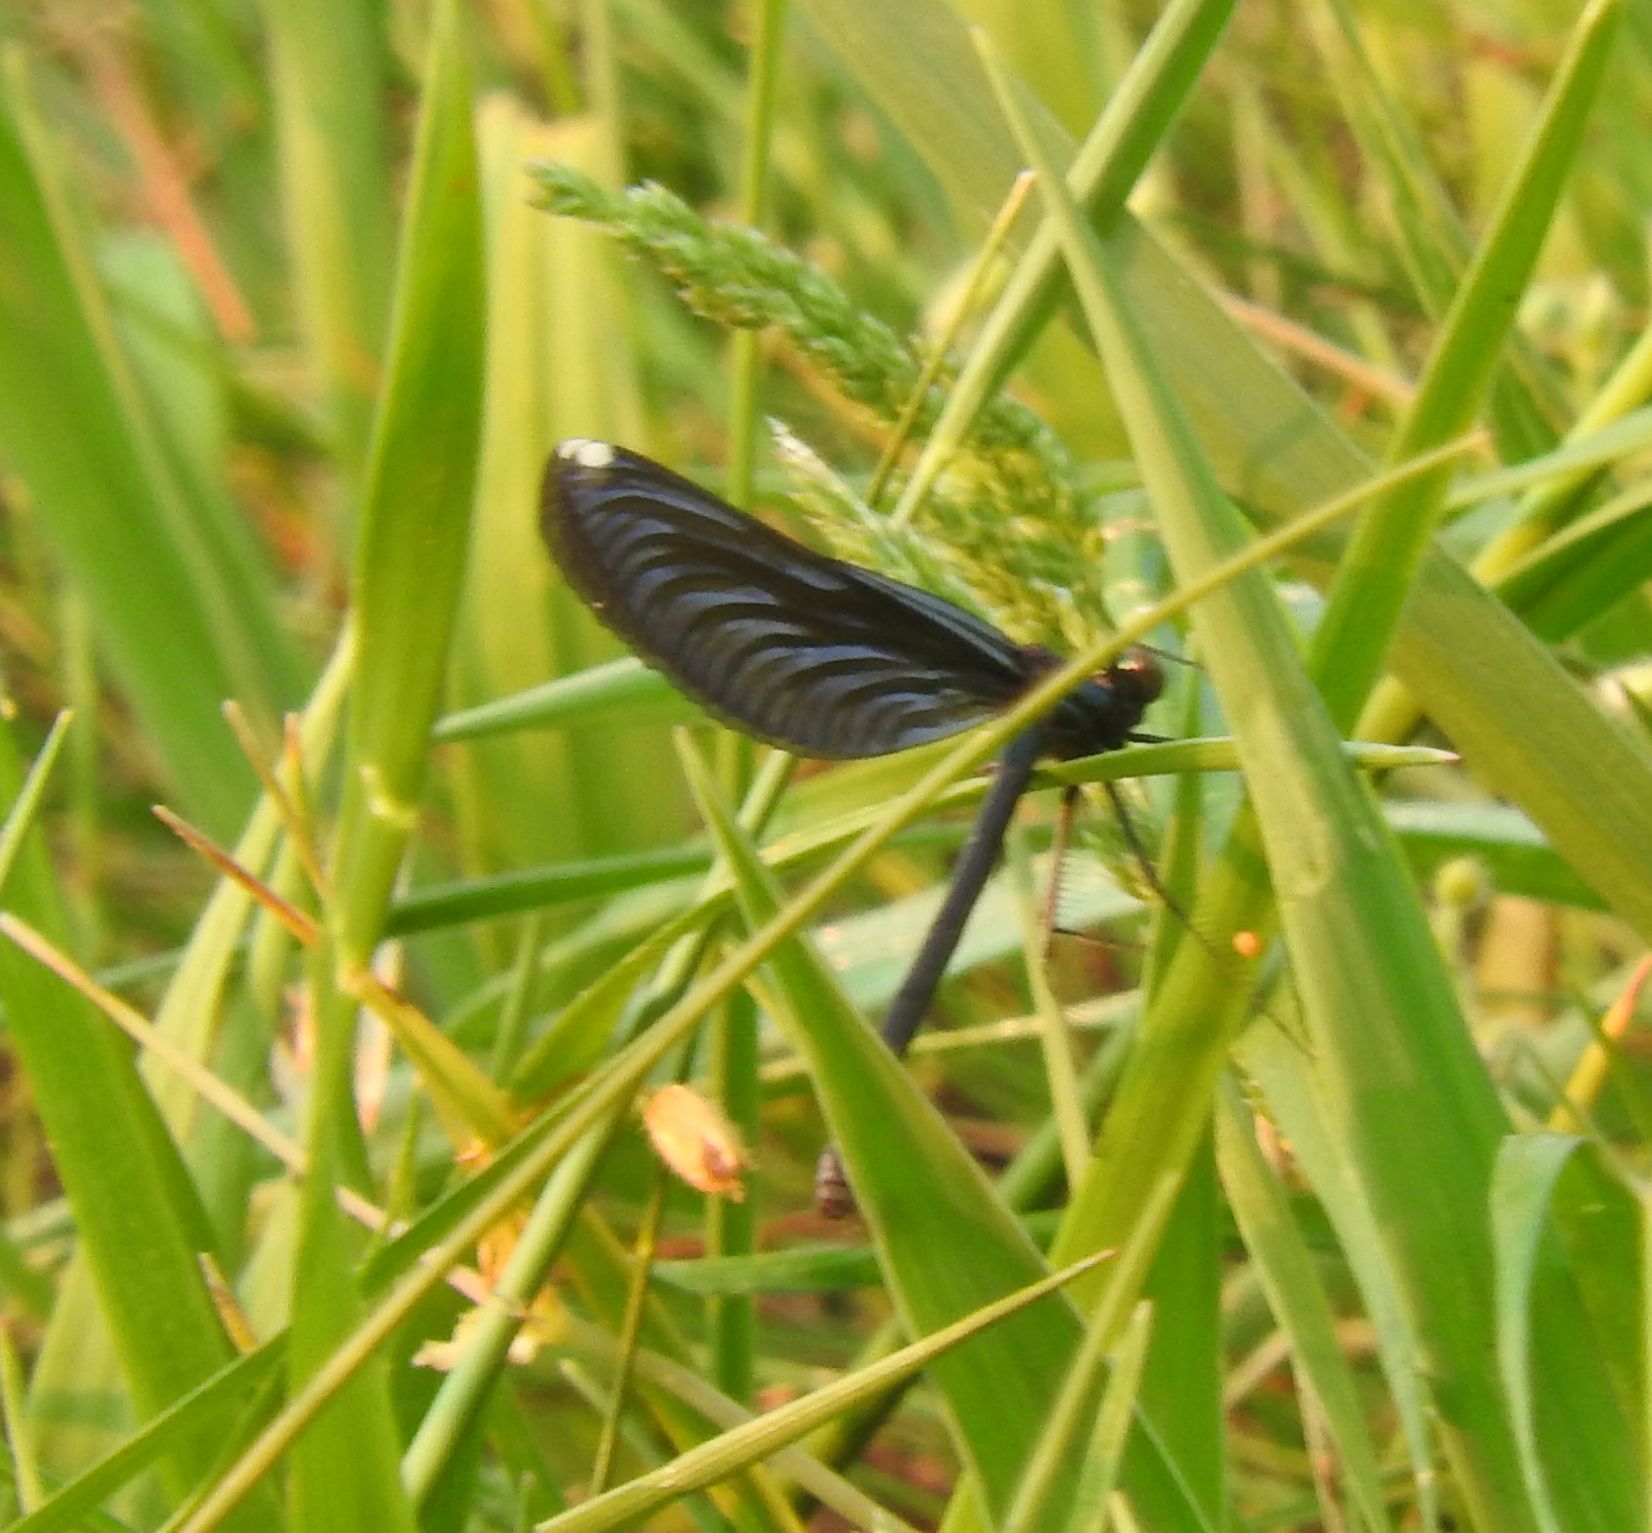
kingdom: Animalia
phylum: Arthropoda
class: Insecta
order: Odonata
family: Calopterygidae
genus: Calopteryx
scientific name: Calopteryx maculata
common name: Ebony jewelwing
